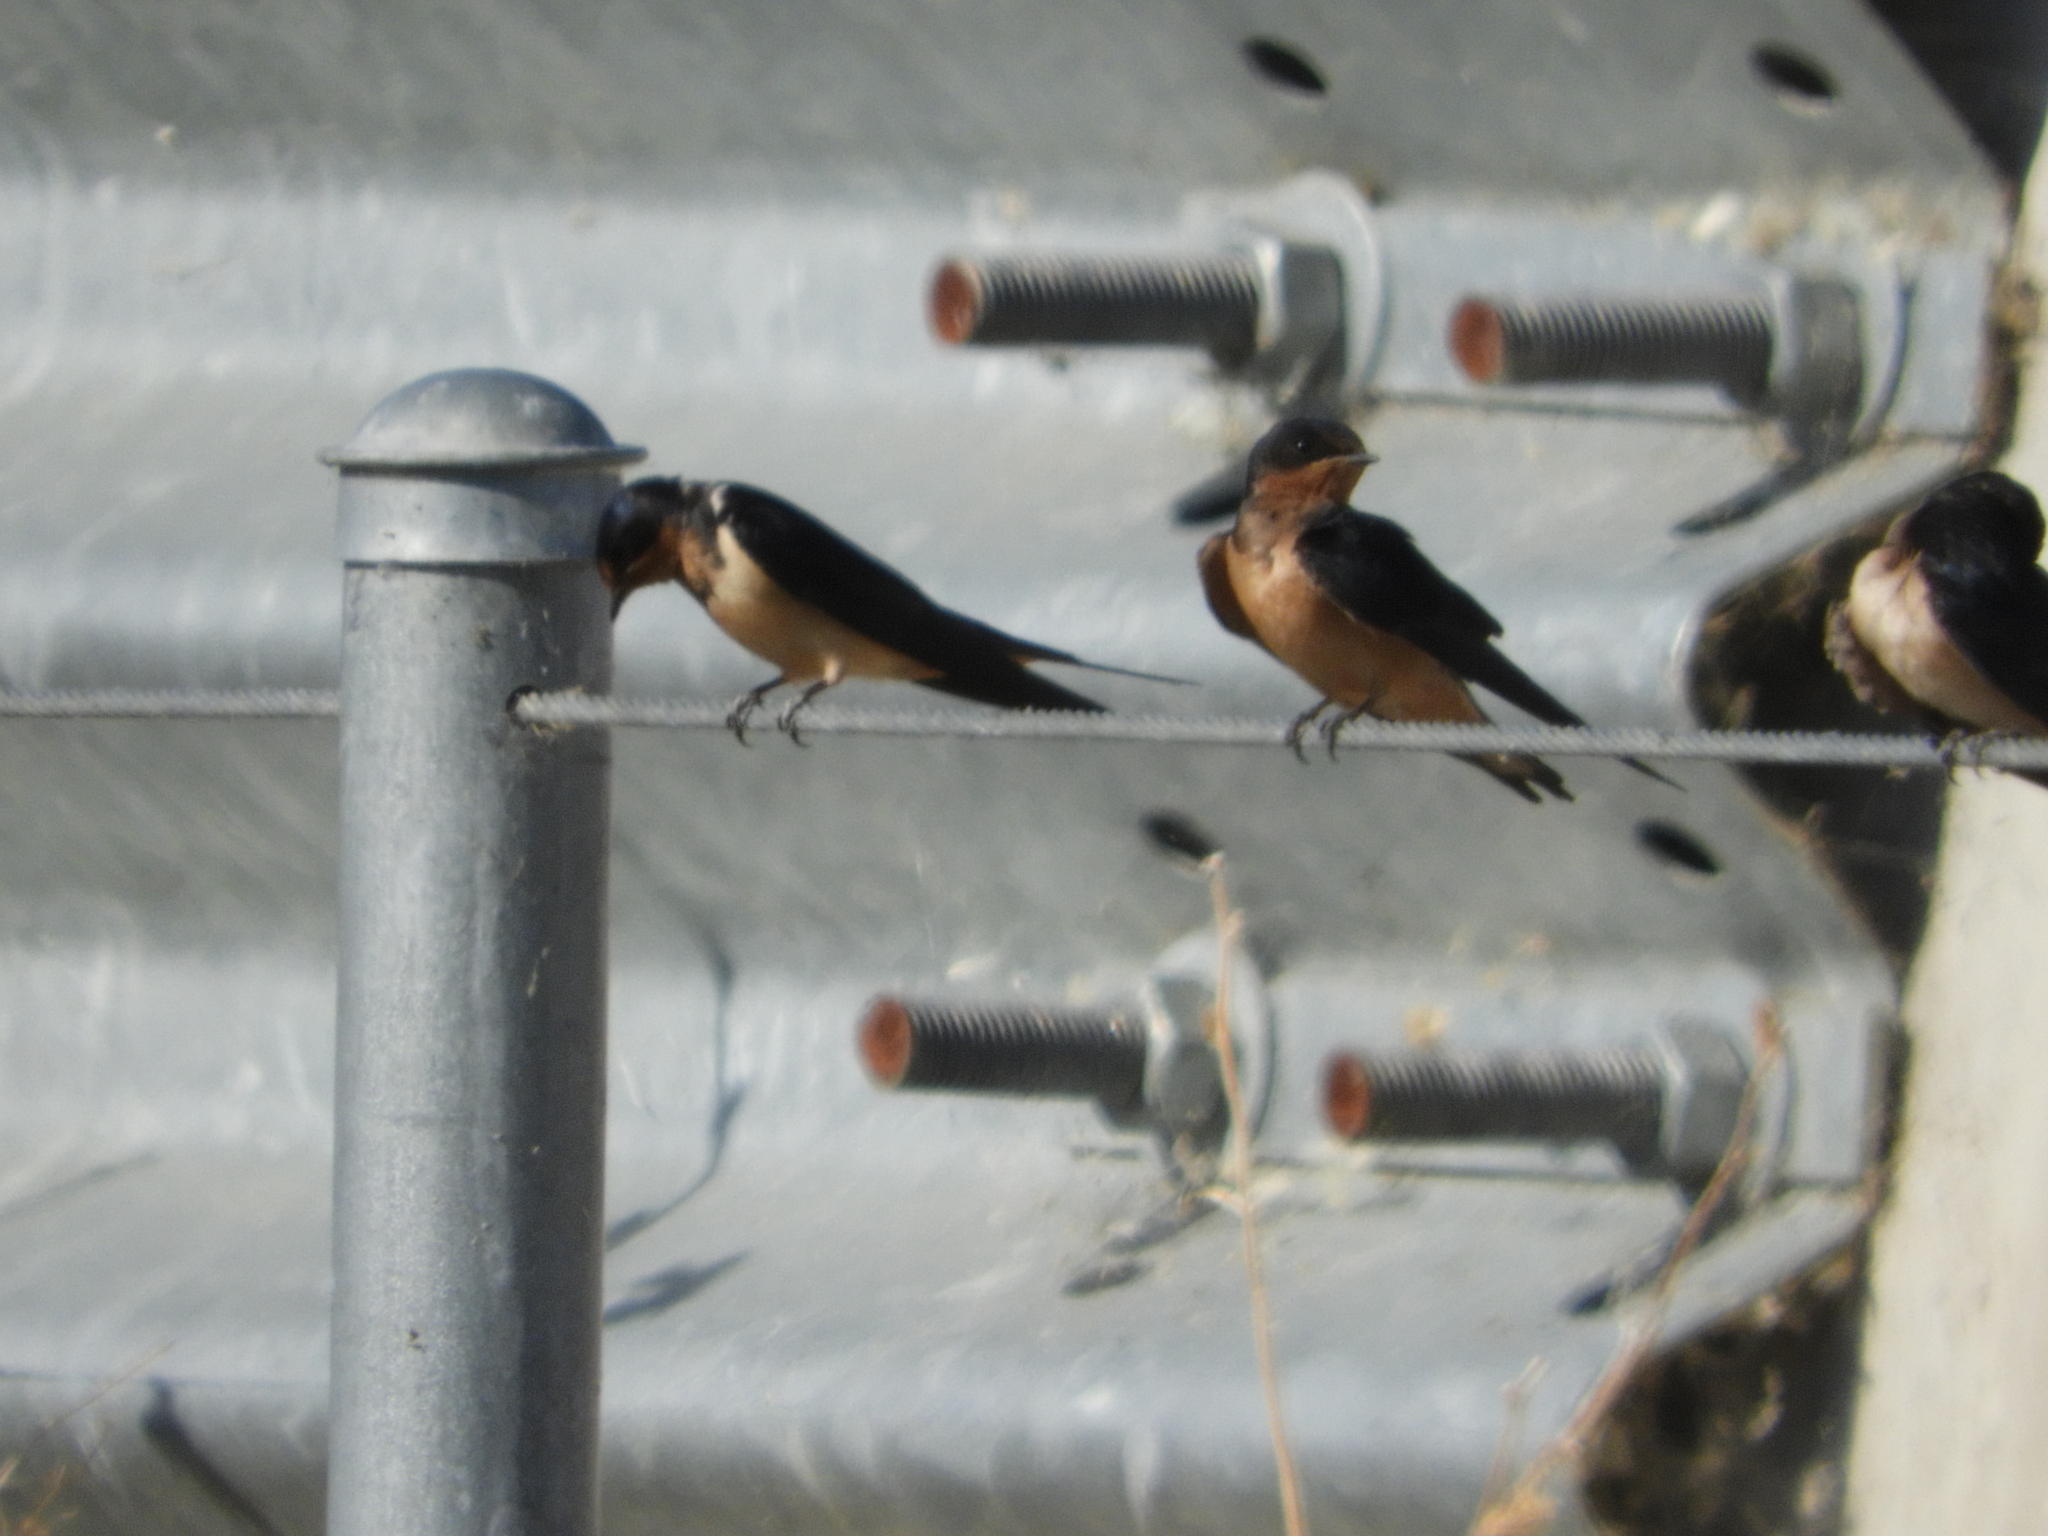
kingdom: Animalia
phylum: Chordata
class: Aves
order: Passeriformes
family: Hirundinidae
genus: Hirundo
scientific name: Hirundo rustica
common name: Barn swallow
